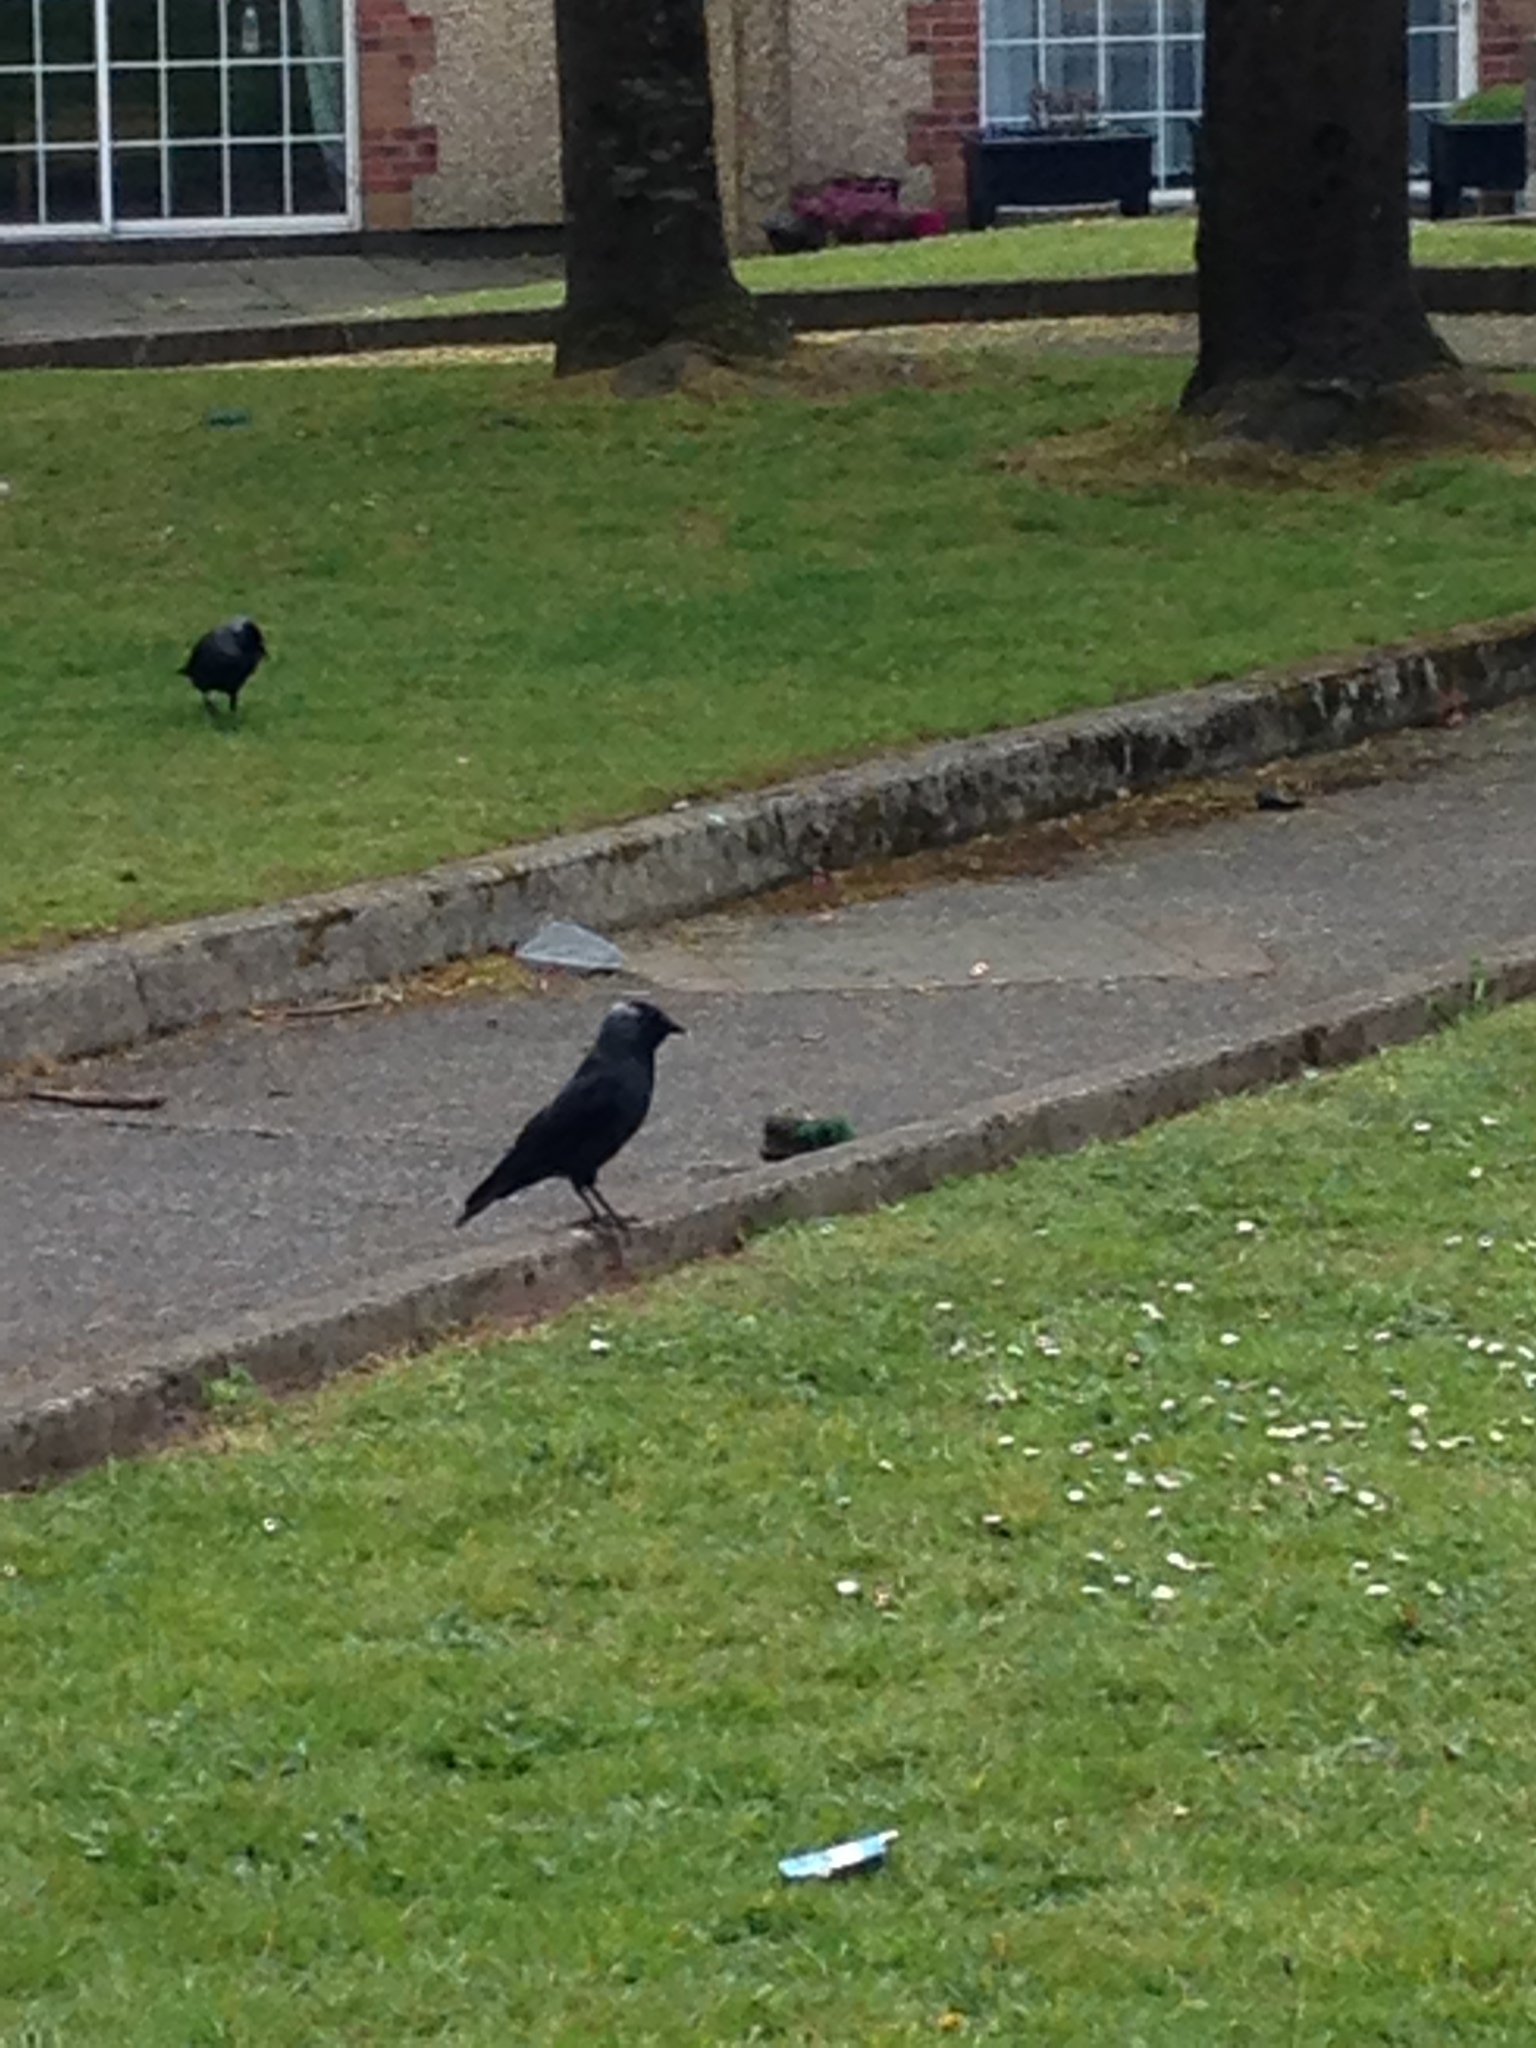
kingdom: Animalia
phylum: Chordata
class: Aves
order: Passeriformes
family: Corvidae
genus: Coloeus
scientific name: Coloeus monedula
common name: Western jackdaw
